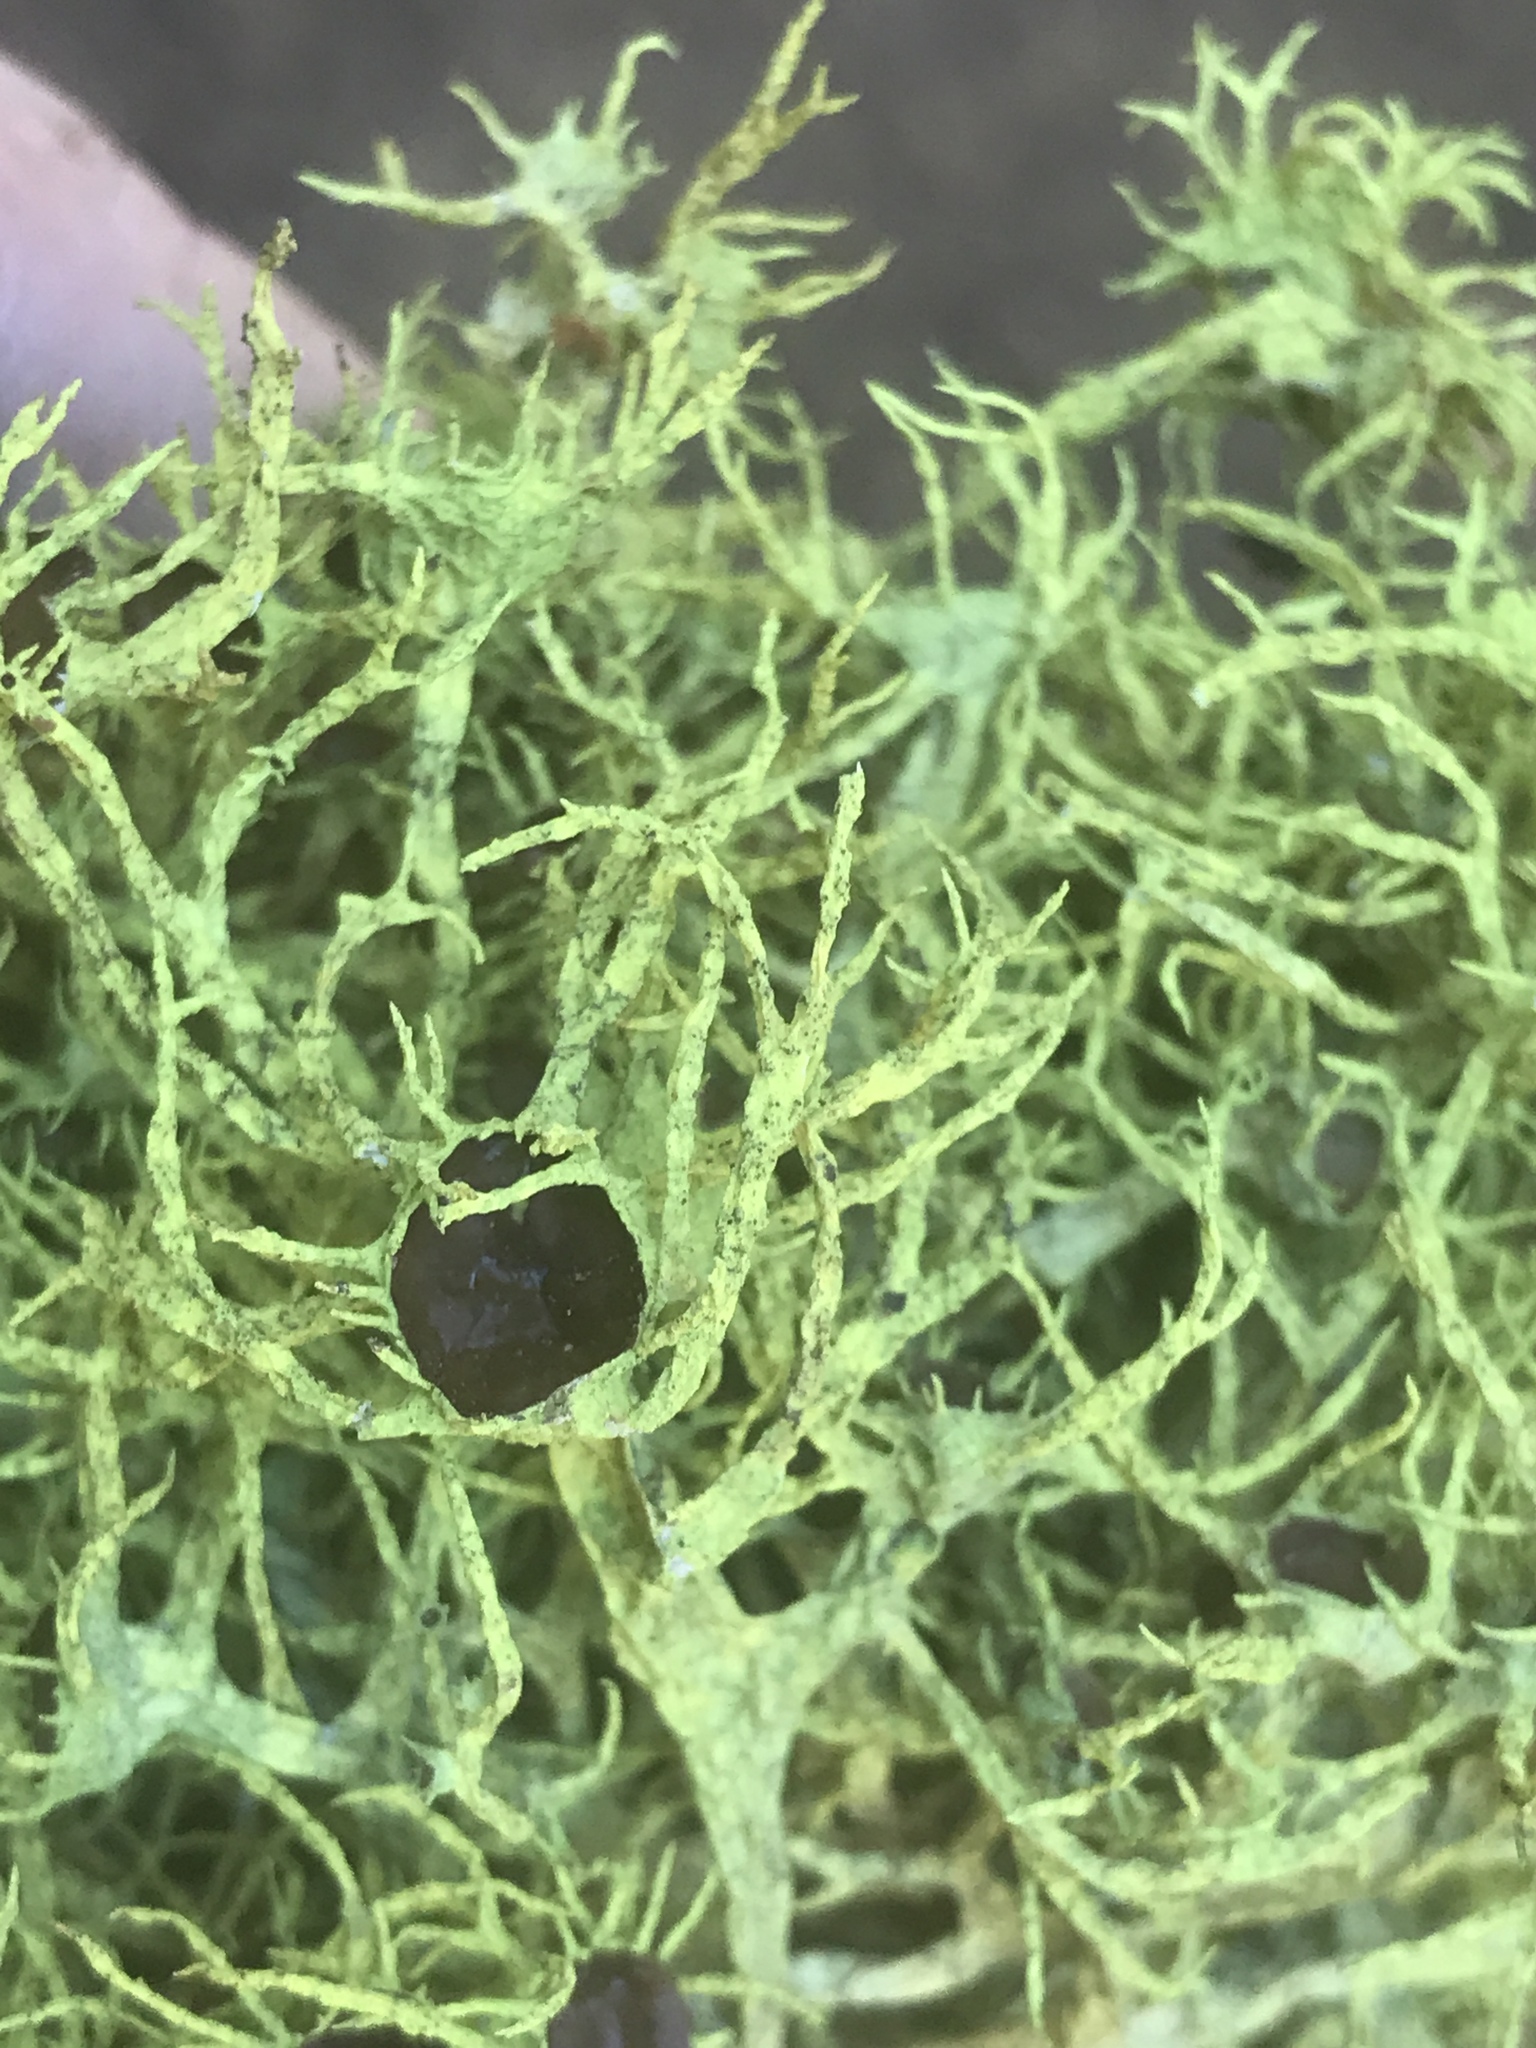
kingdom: Fungi
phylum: Ascomycota
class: Lecanoromycetes
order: Lecanorales
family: Parmeliaceae
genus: Letharia
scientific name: Letharia columbiana
